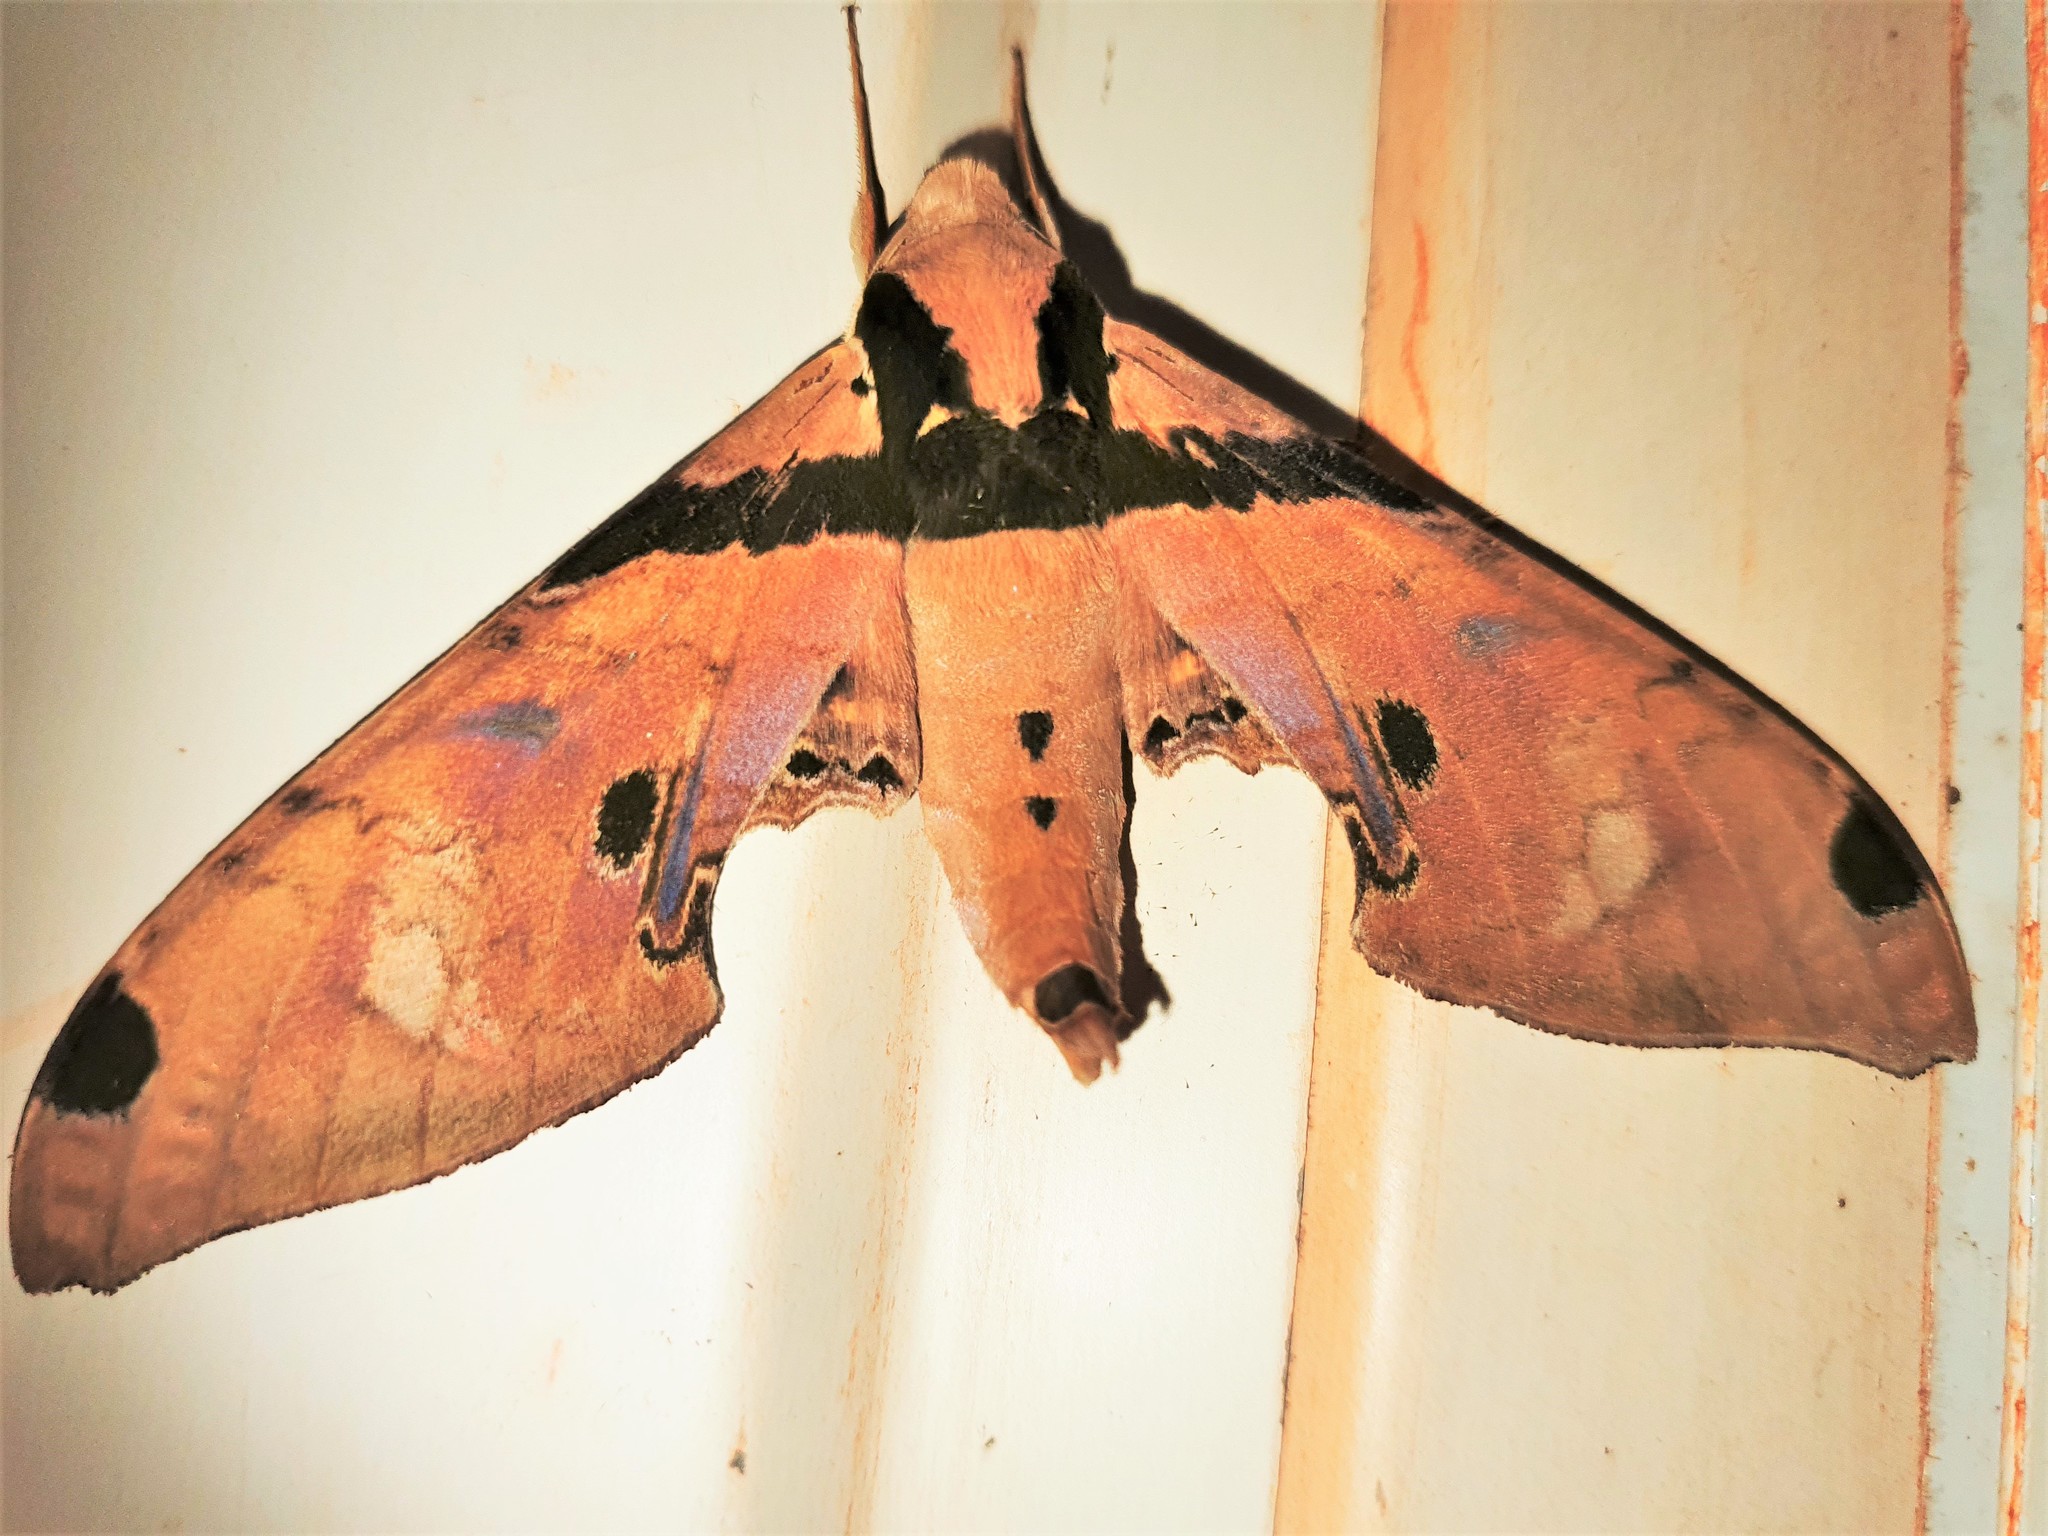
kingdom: Animalia
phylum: Arthropoda
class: Insecta
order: Lepidoptera
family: Sphingidae
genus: Adhemarius
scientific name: Adhemarius gagarini
